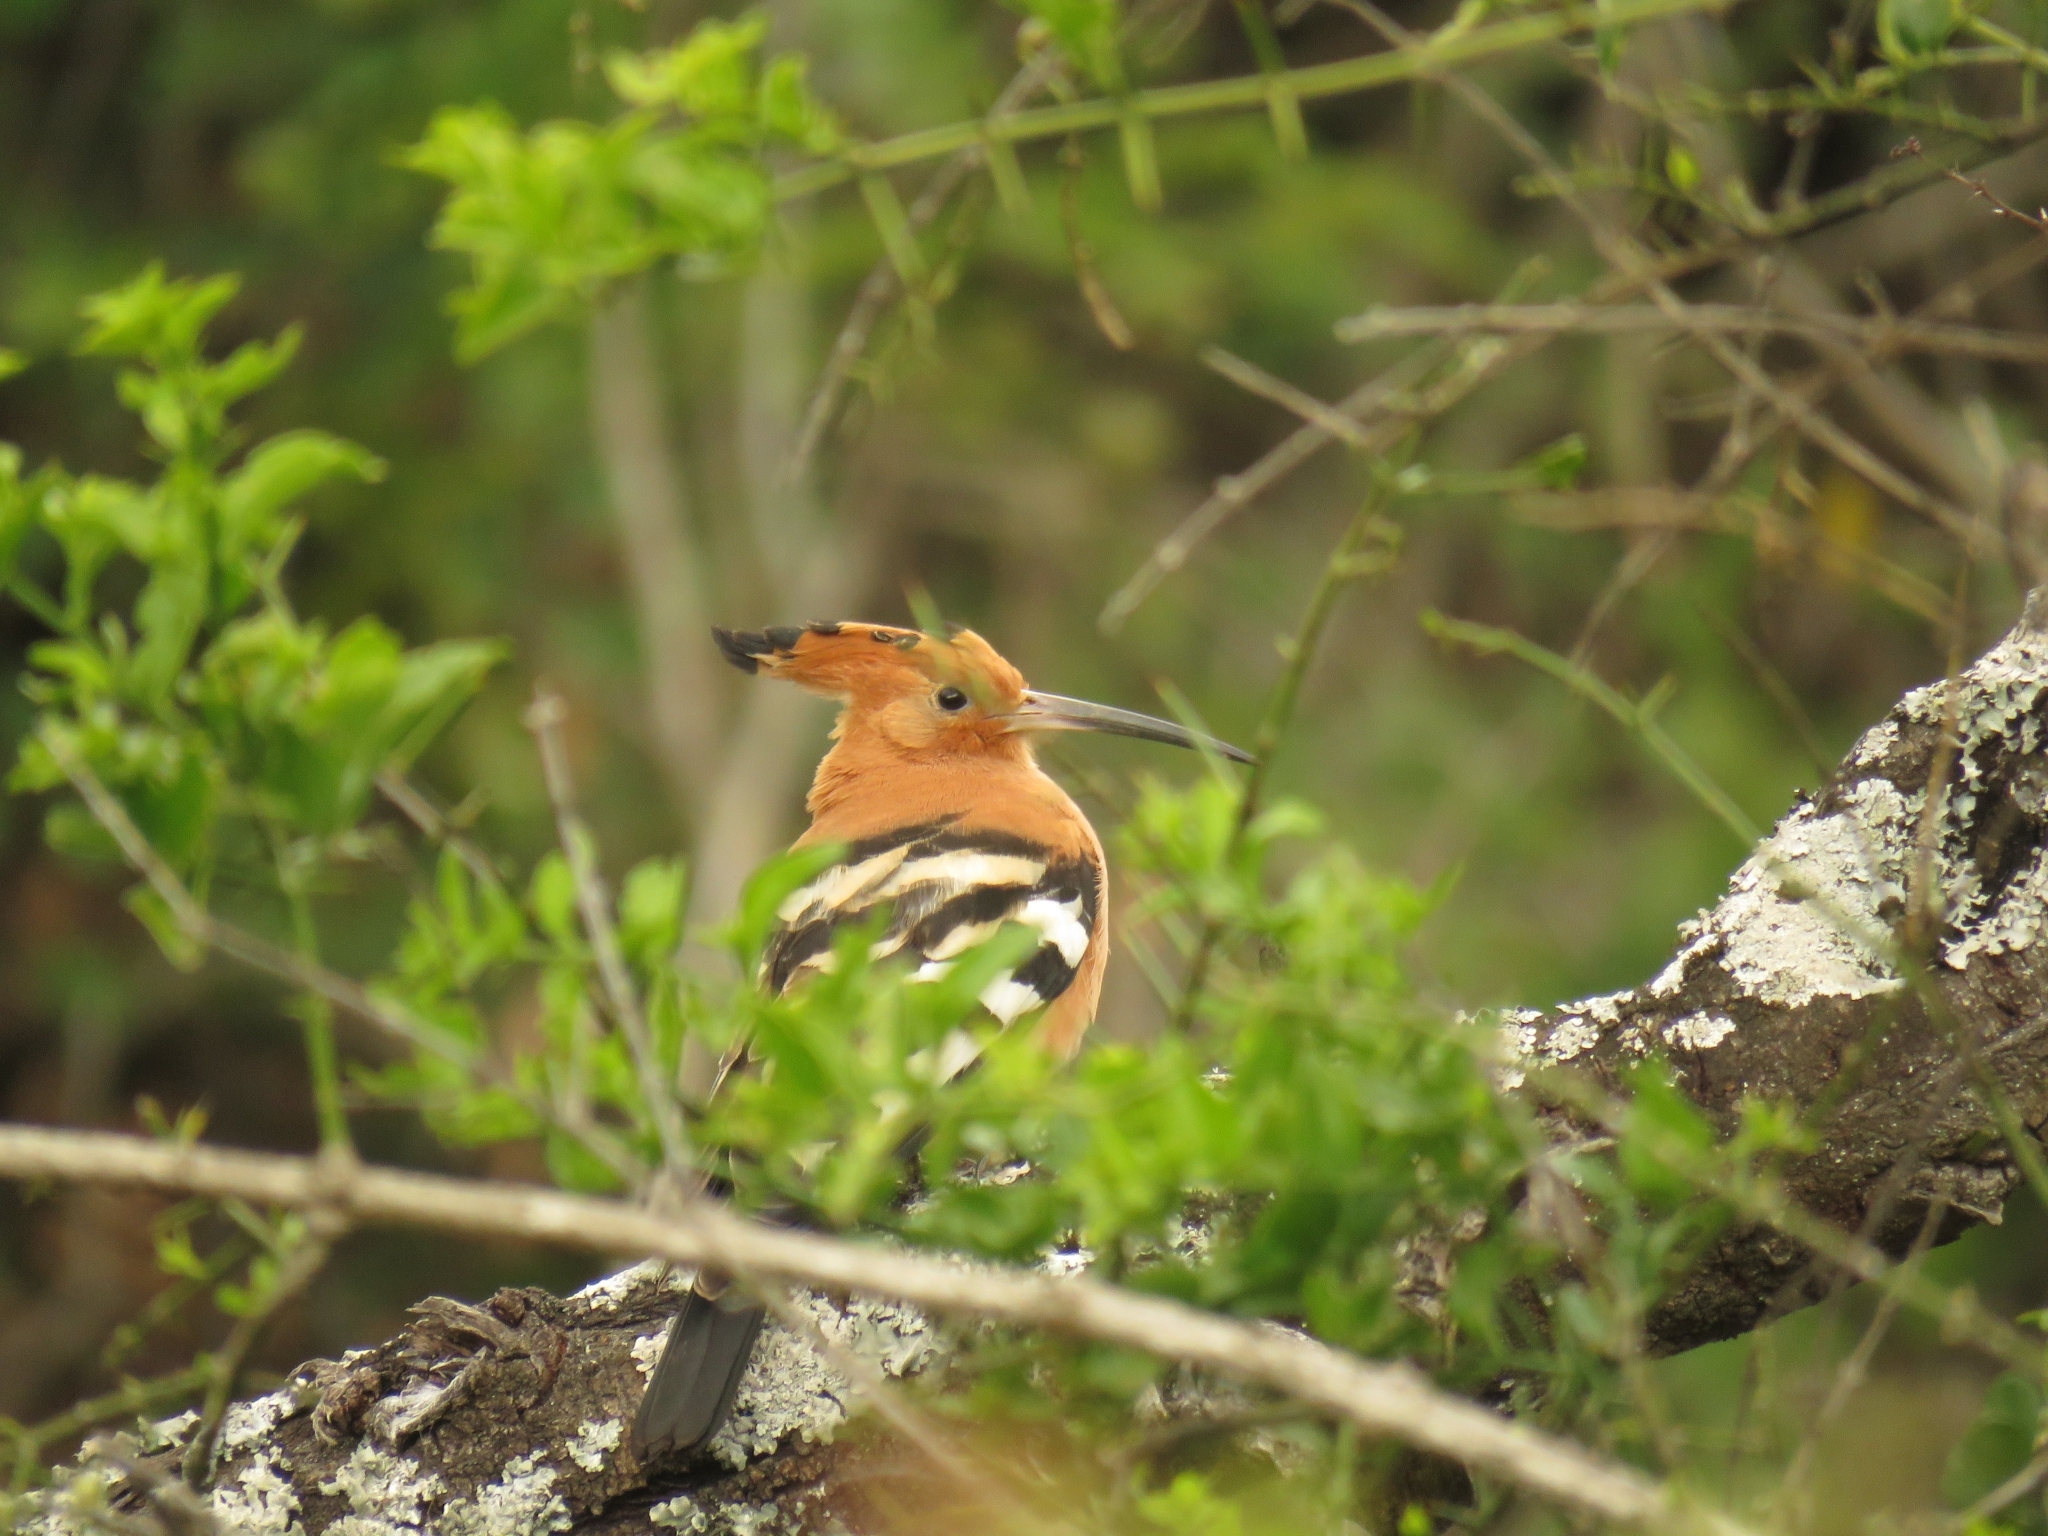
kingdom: Animalia
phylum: Chordata
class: Aves
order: Bucerotiformes
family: Upupidae
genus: Upupa
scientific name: Upupa africana
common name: African hoopoe
